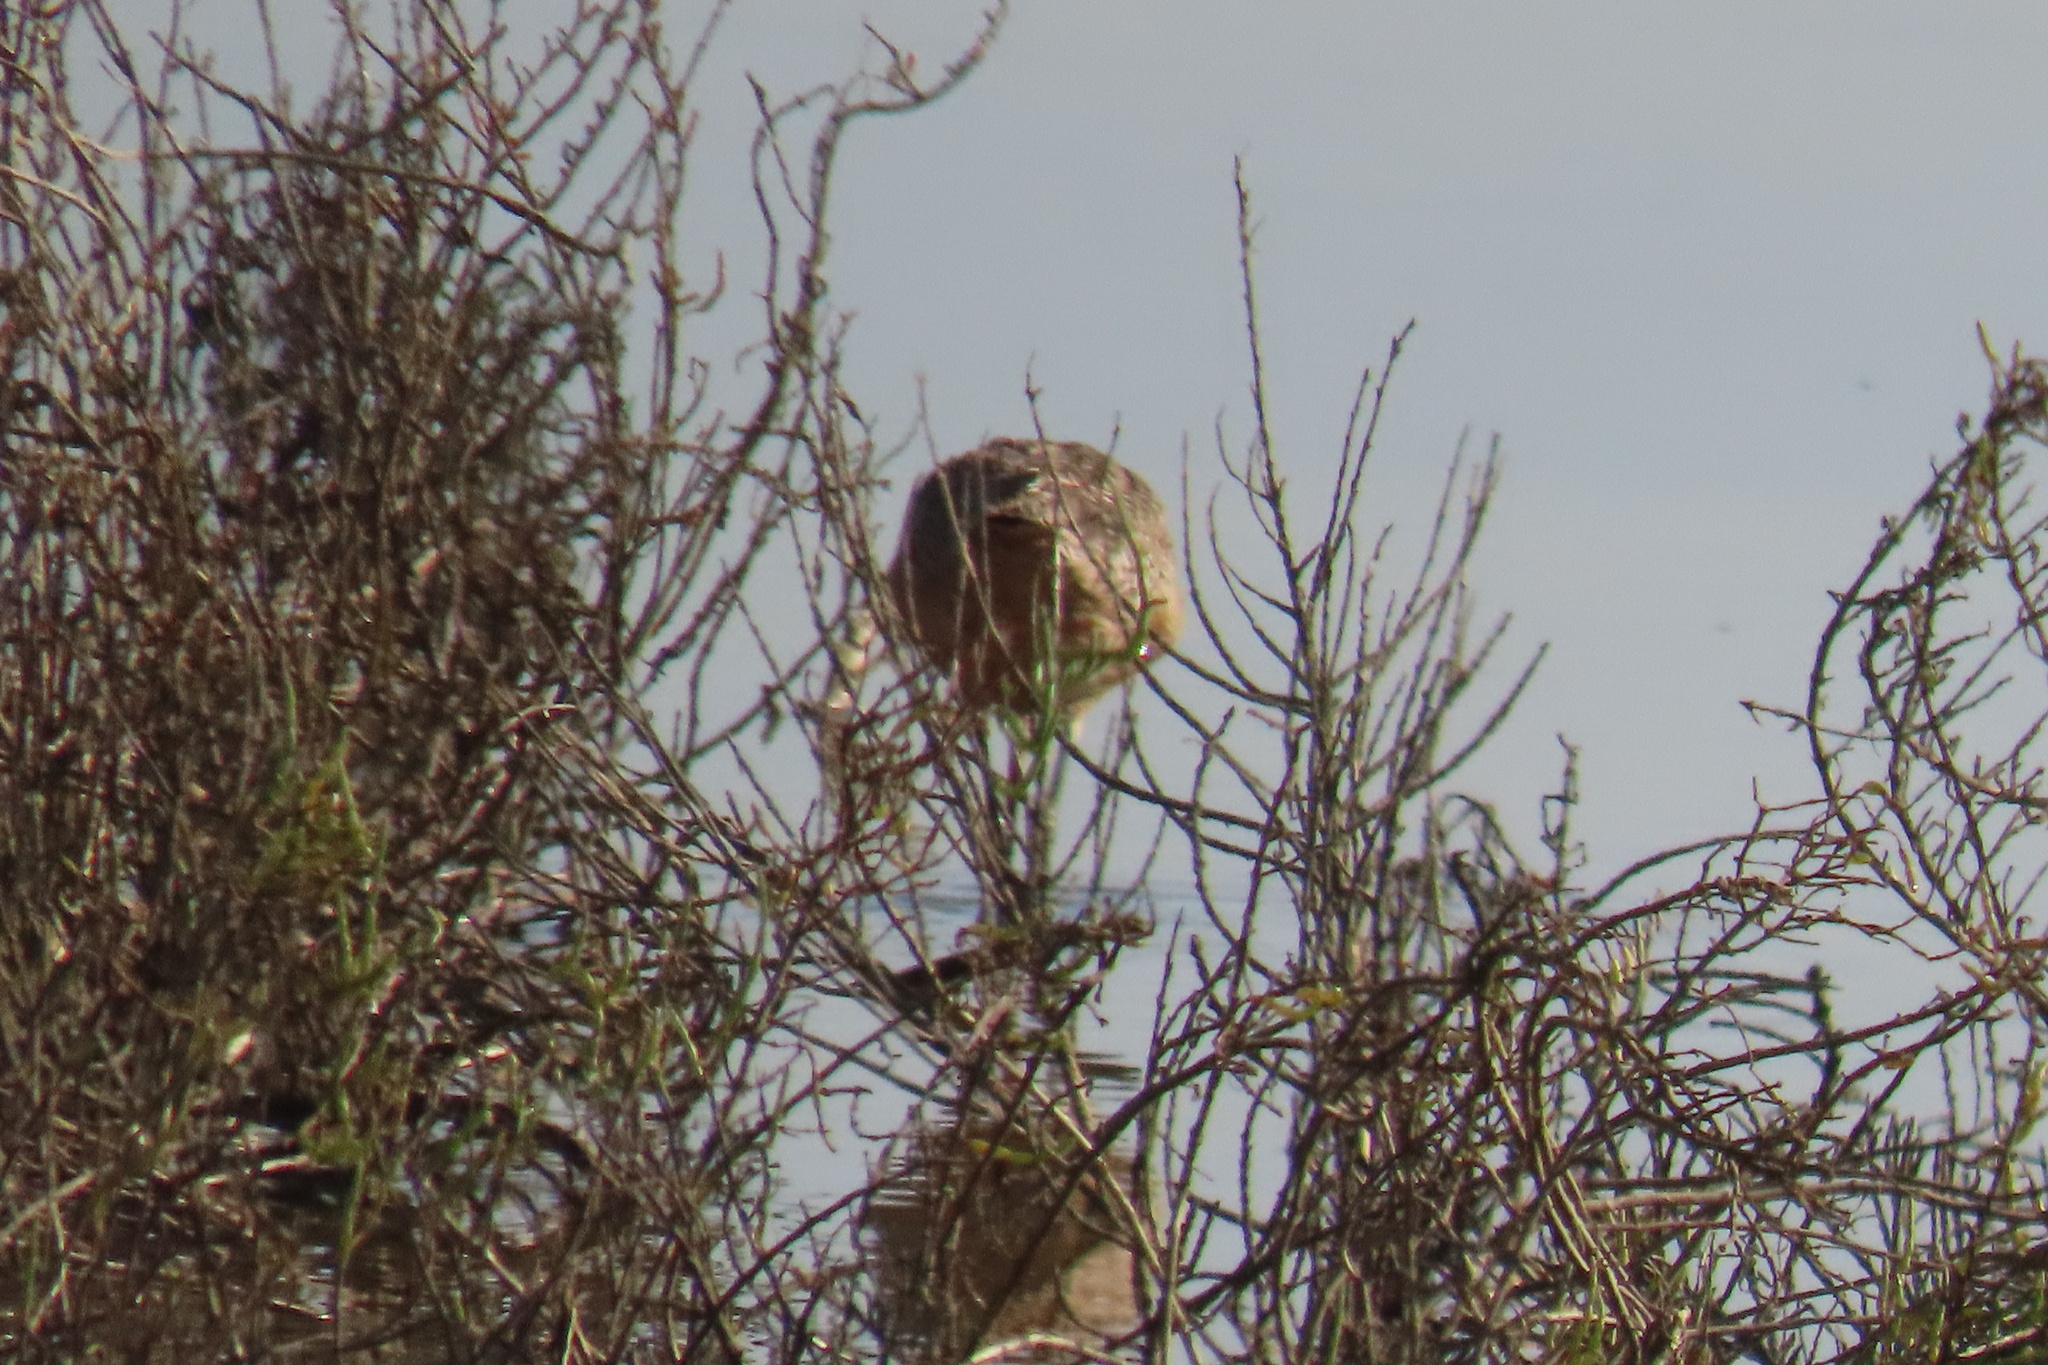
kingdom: Animalia
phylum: Chordata
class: Aves
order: Charadriiformes
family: Scolopacidae
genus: Limosa
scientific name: Limosa fedoa
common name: Marbled godwit
